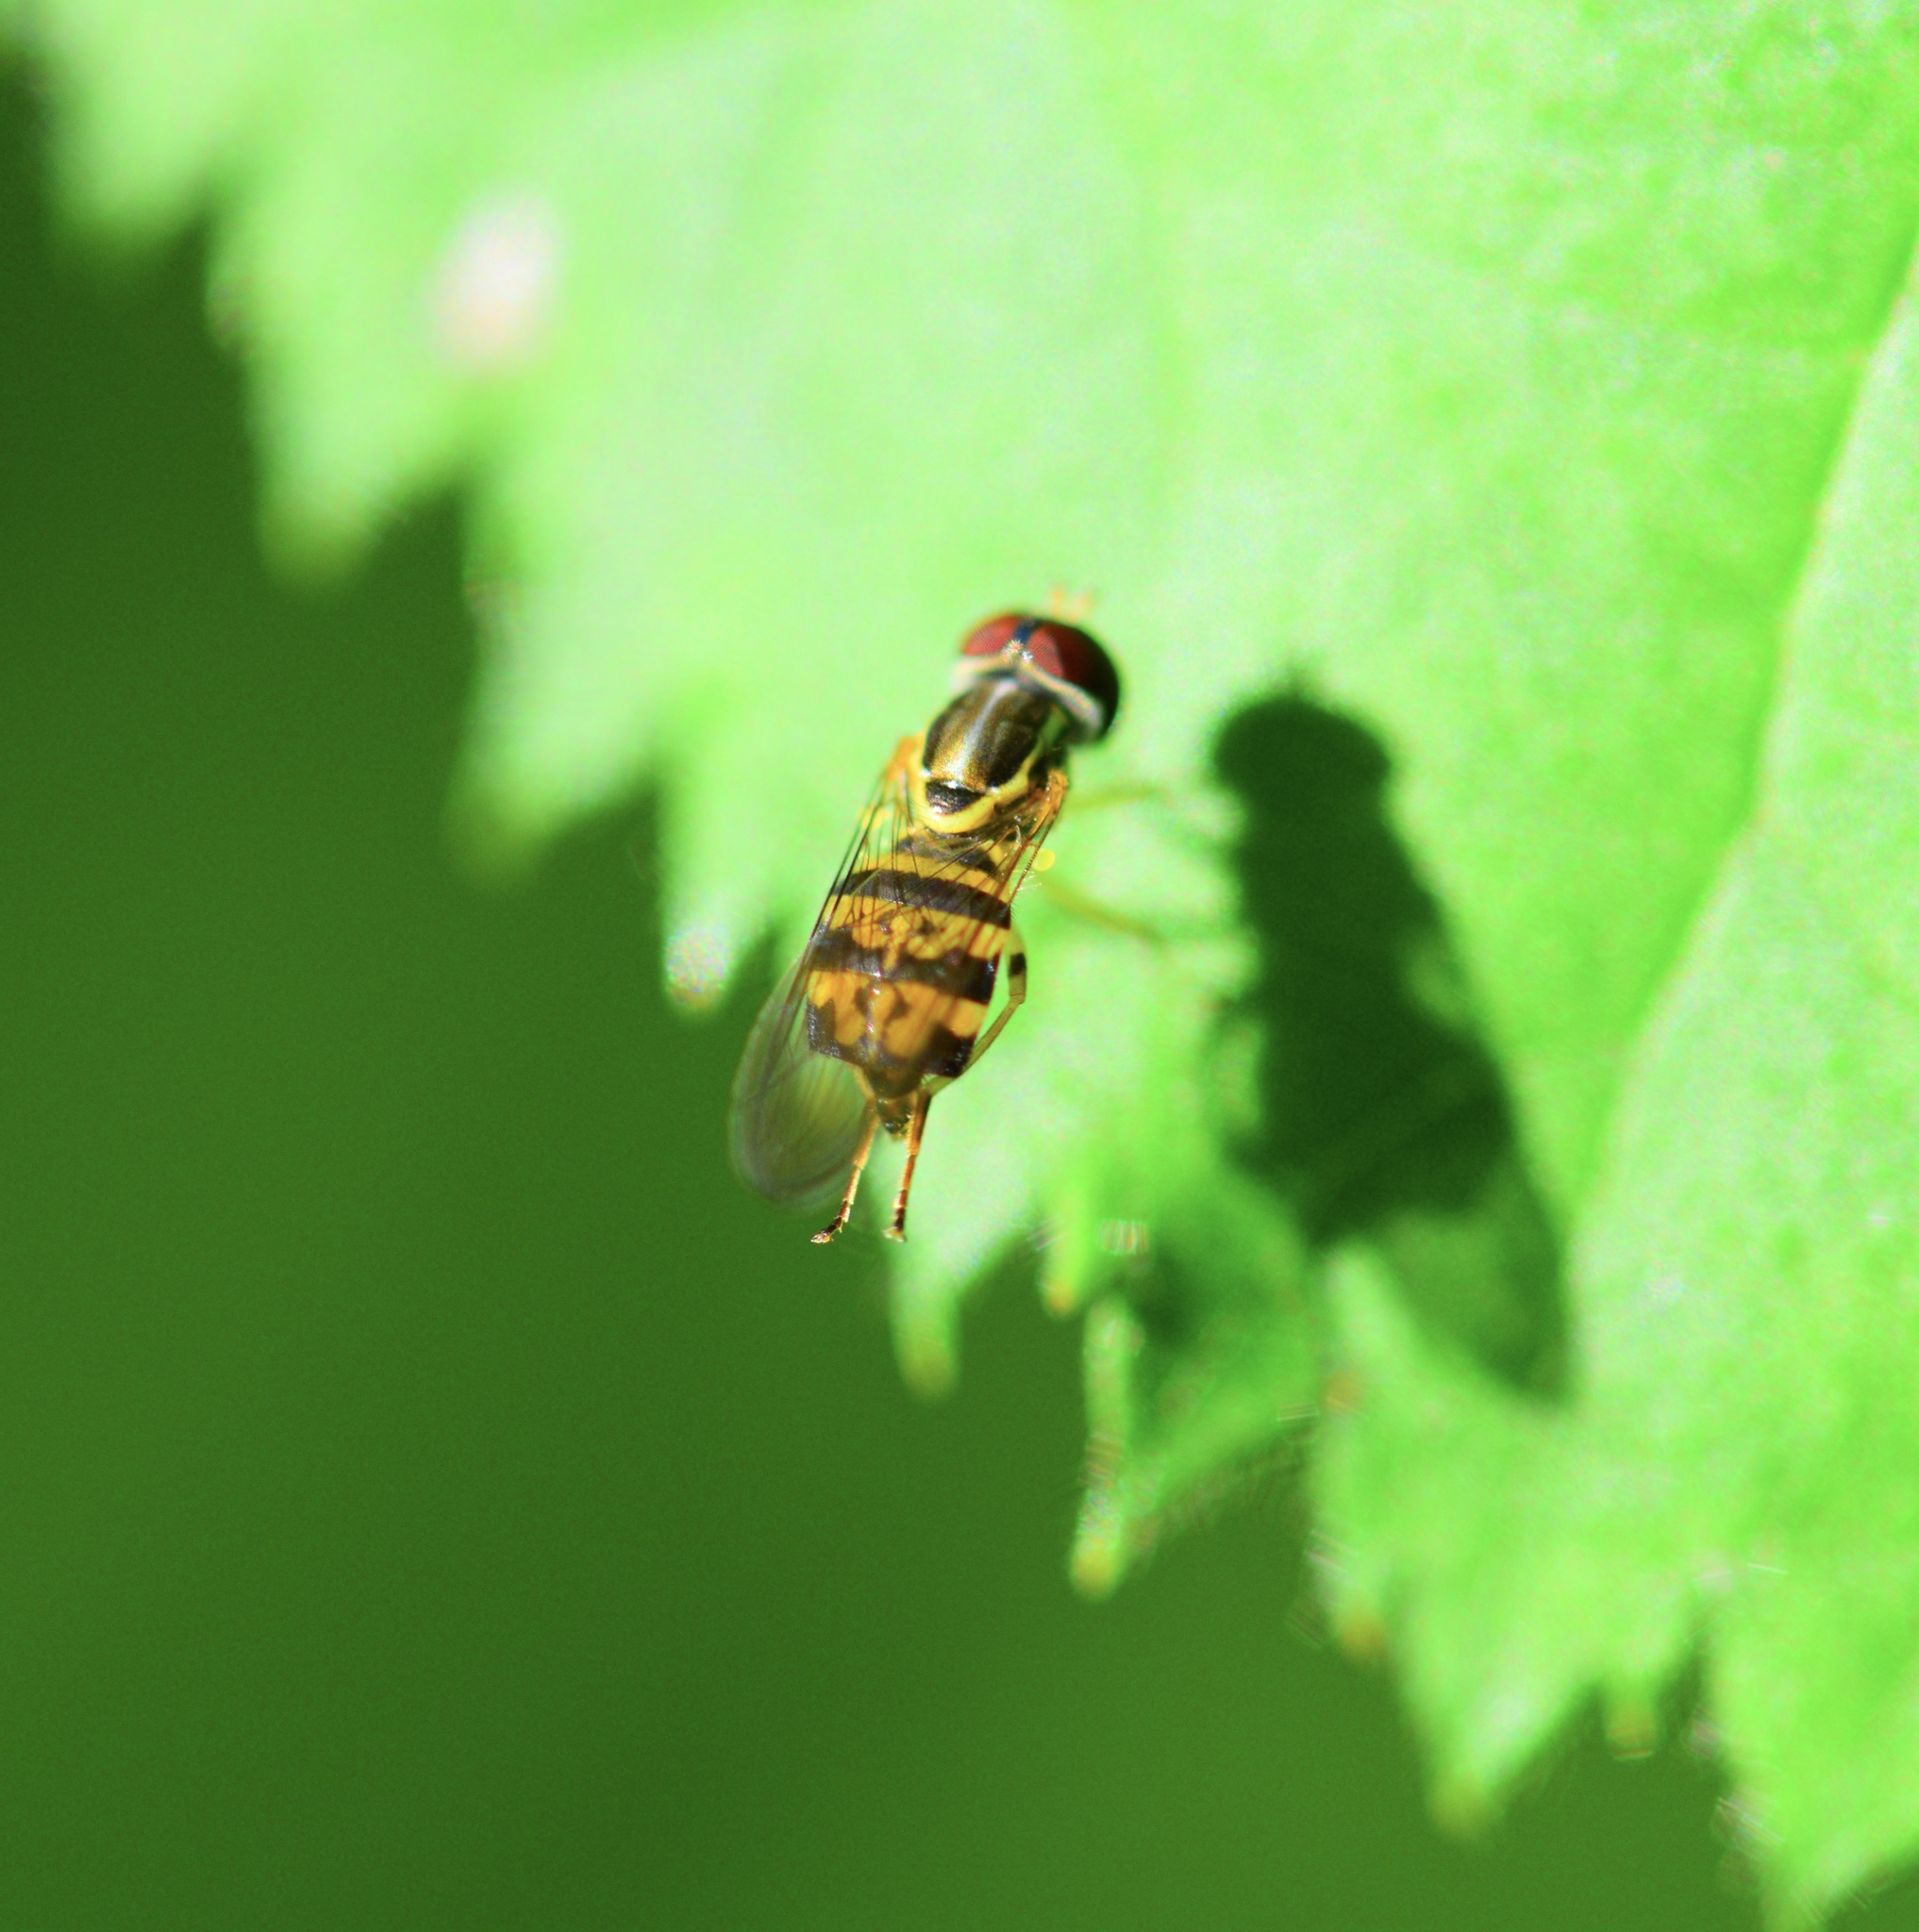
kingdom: Animalia
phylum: Arthropoda
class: Insecta
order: Diptera
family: Syrphidae
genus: Toxomerus
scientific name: Toxomerus geminatus
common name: Eastern calligrapher
